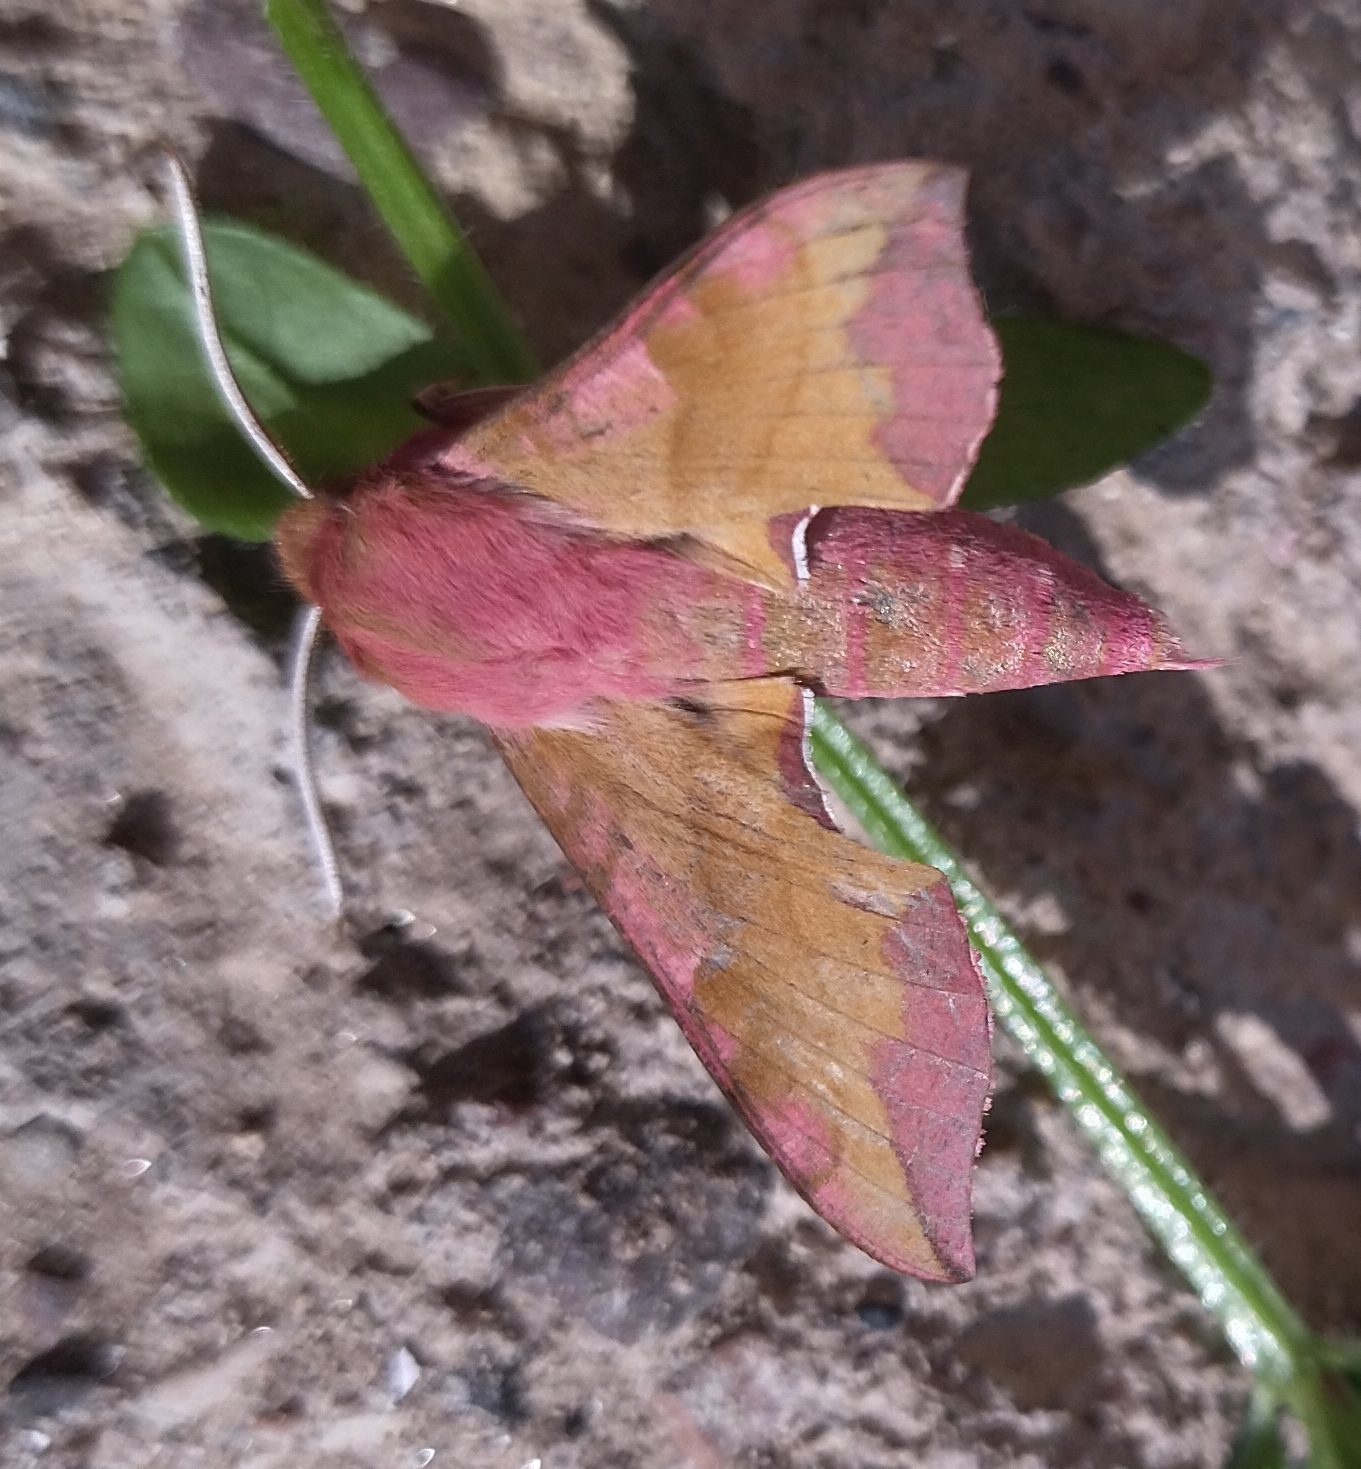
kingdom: Animalia
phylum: Arthropoda
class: Insecta
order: Lepidoptera
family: Sphingidae
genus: Deilephila
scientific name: Deilephila porcellus
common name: Small elephant hawk-moth
